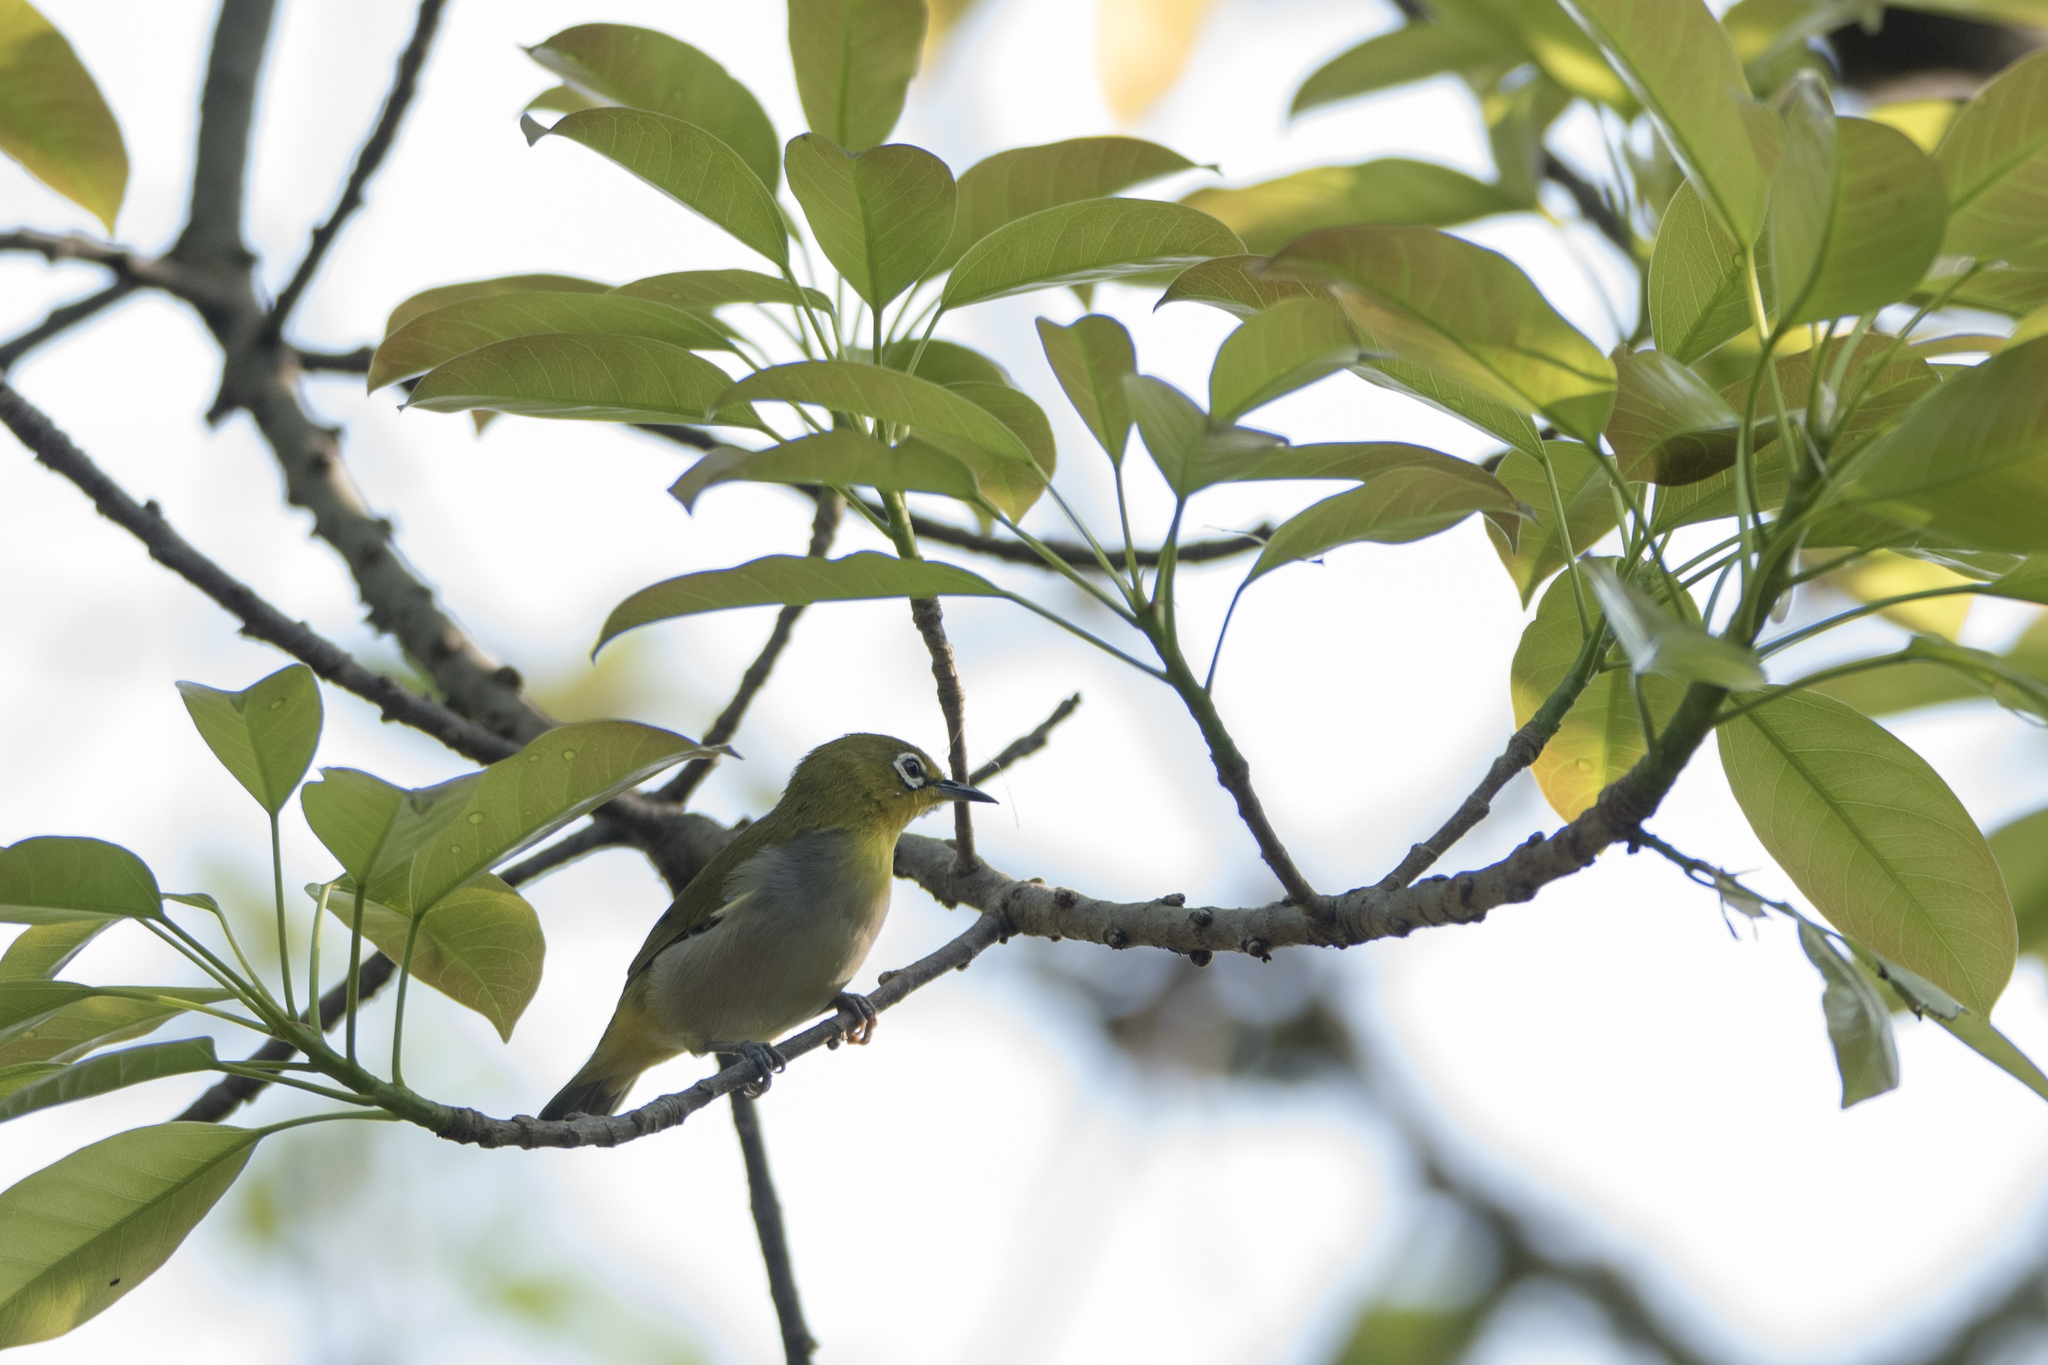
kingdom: Animalia
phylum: Chordata
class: Aves
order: Passeriformes
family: Zosteropidae
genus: Zosterops
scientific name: Zosterops simplex
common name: Swinhoe's white-eye
